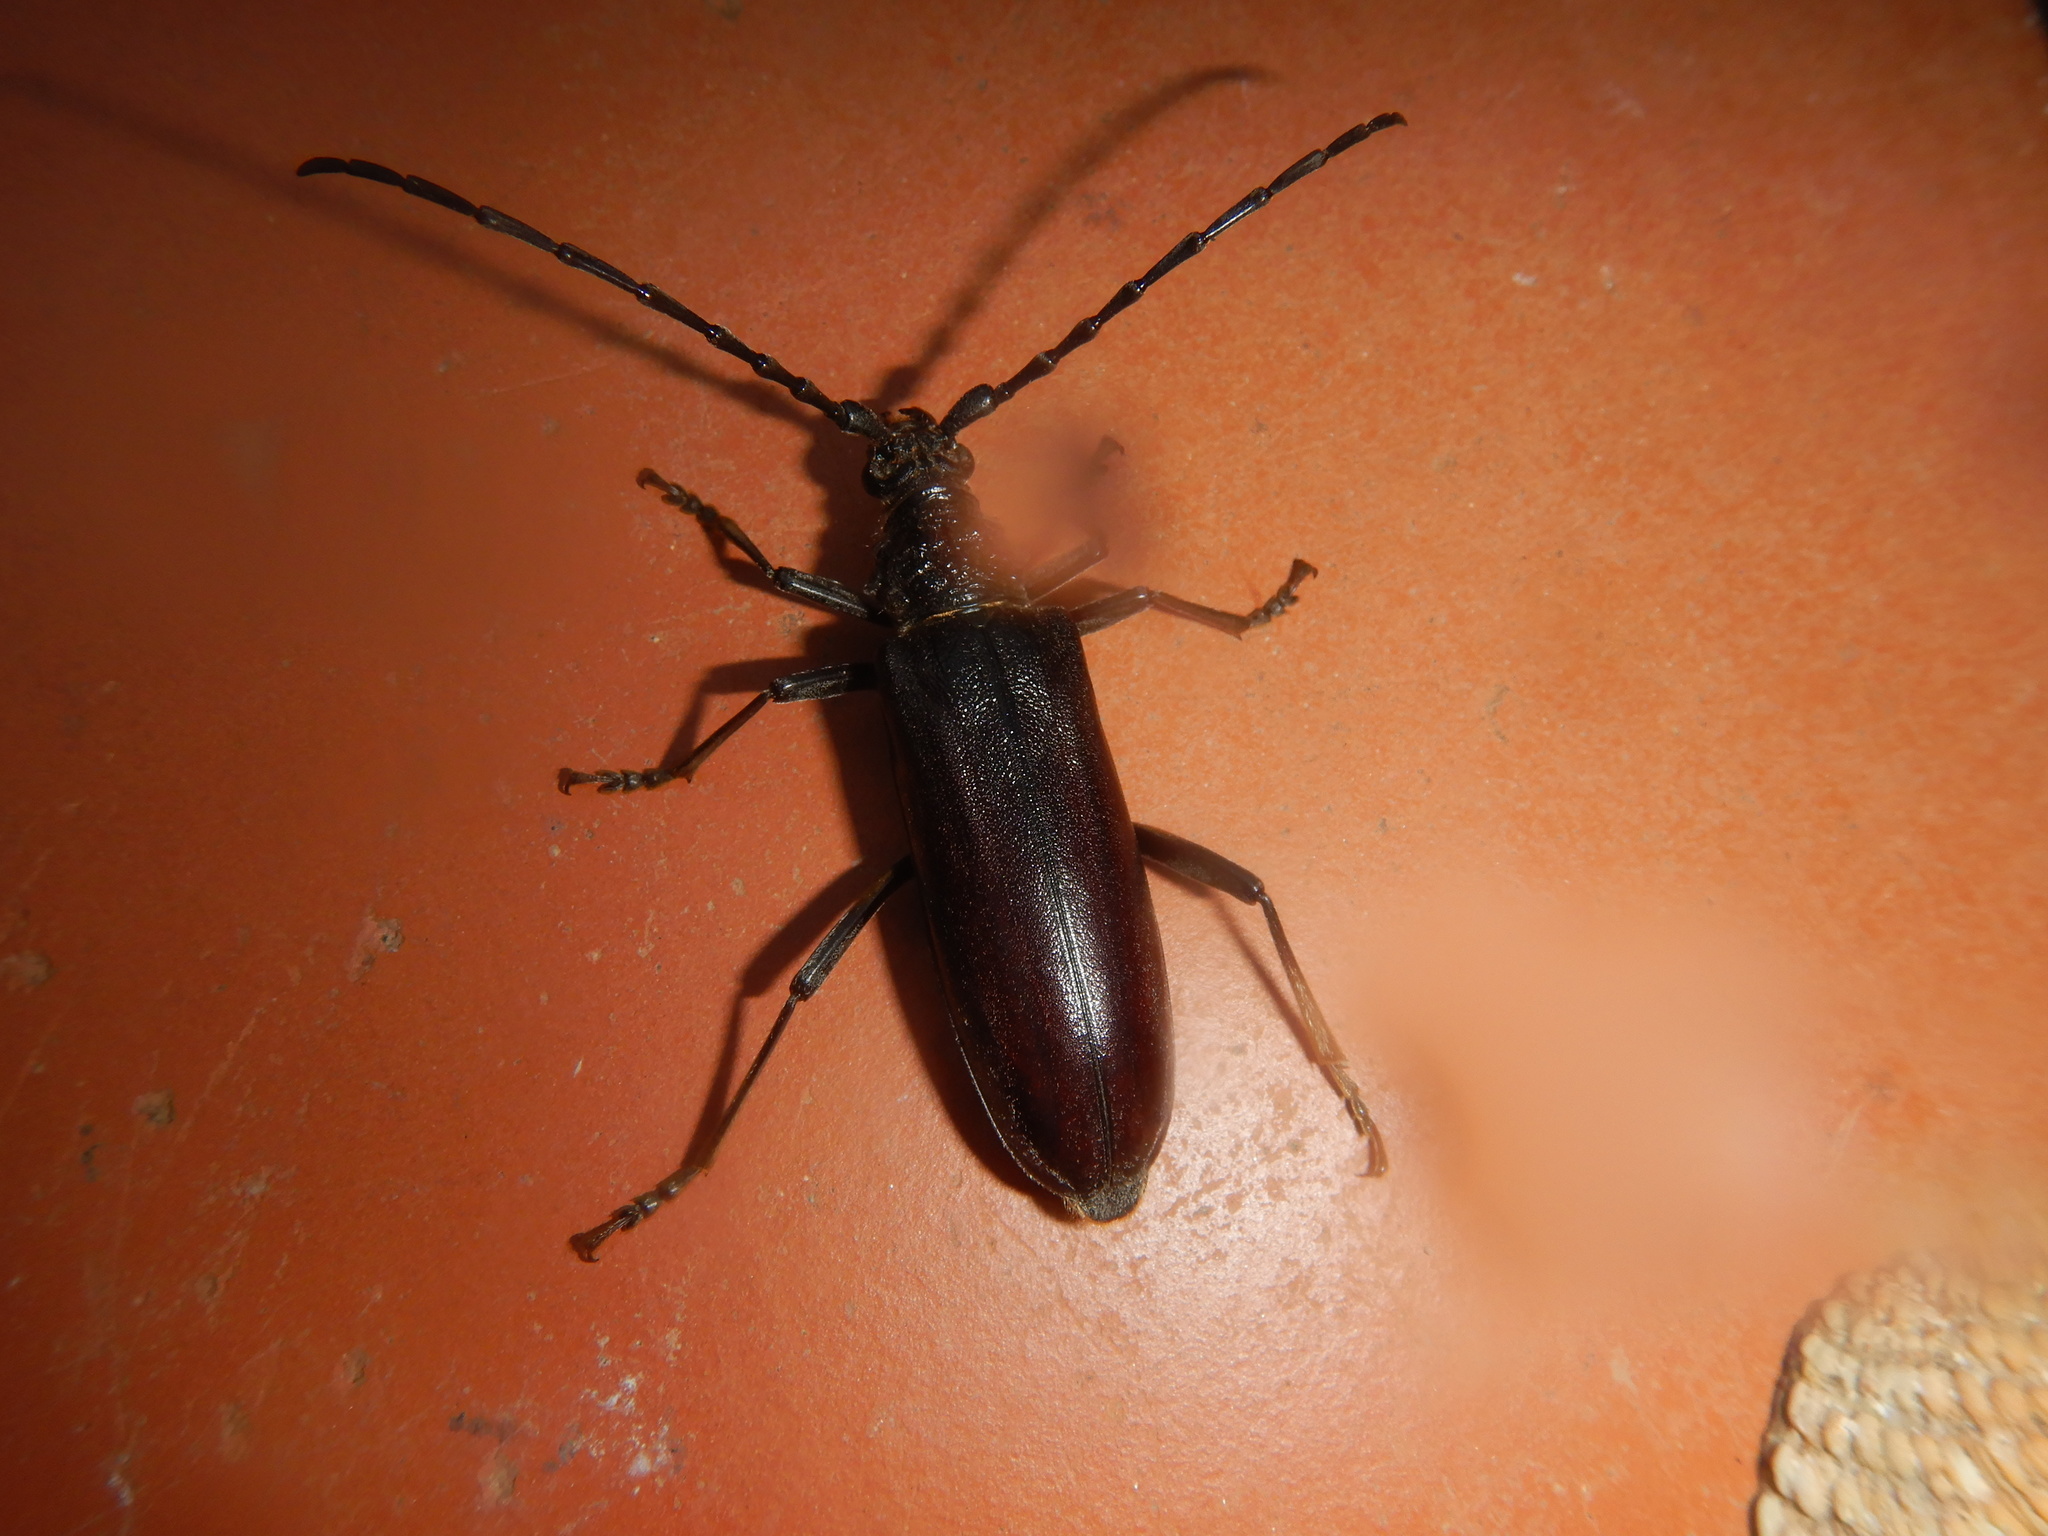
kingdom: Animalia
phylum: Arthropoda
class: Insecta
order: Coleoptera
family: Cerambycidae
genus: Cerambyx
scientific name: Cerambyx welensii
